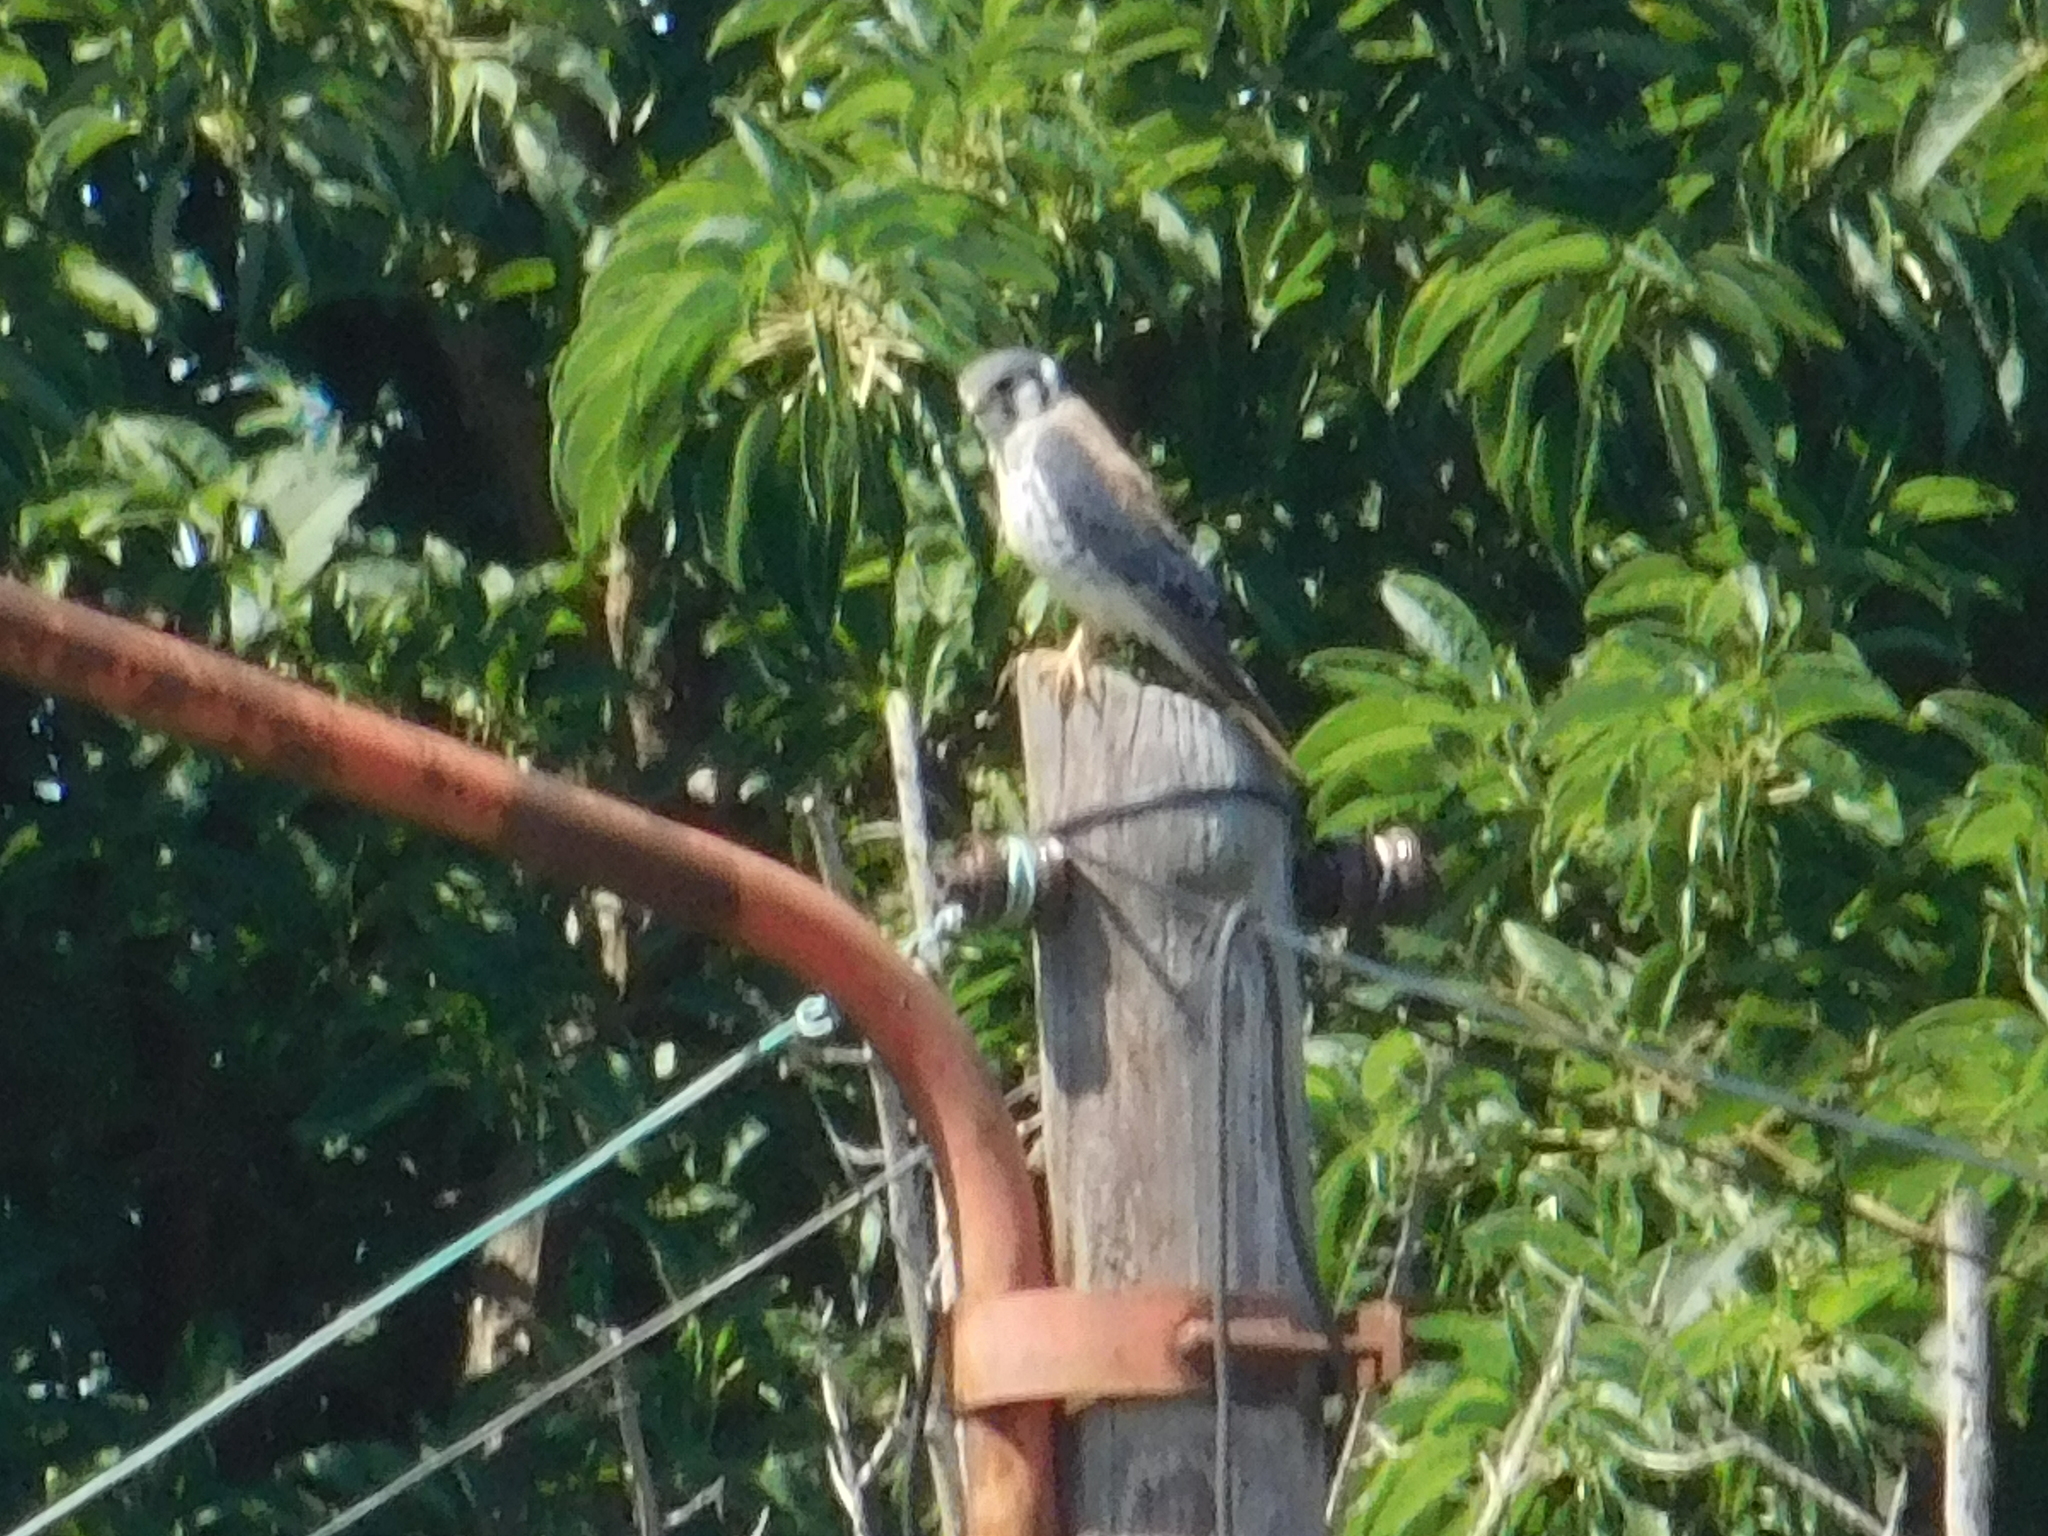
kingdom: Animalia
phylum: Chordata
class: Aves
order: Falconiformes
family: Falconidae
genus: Falco
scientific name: Falco sparverius
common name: American kestrel
